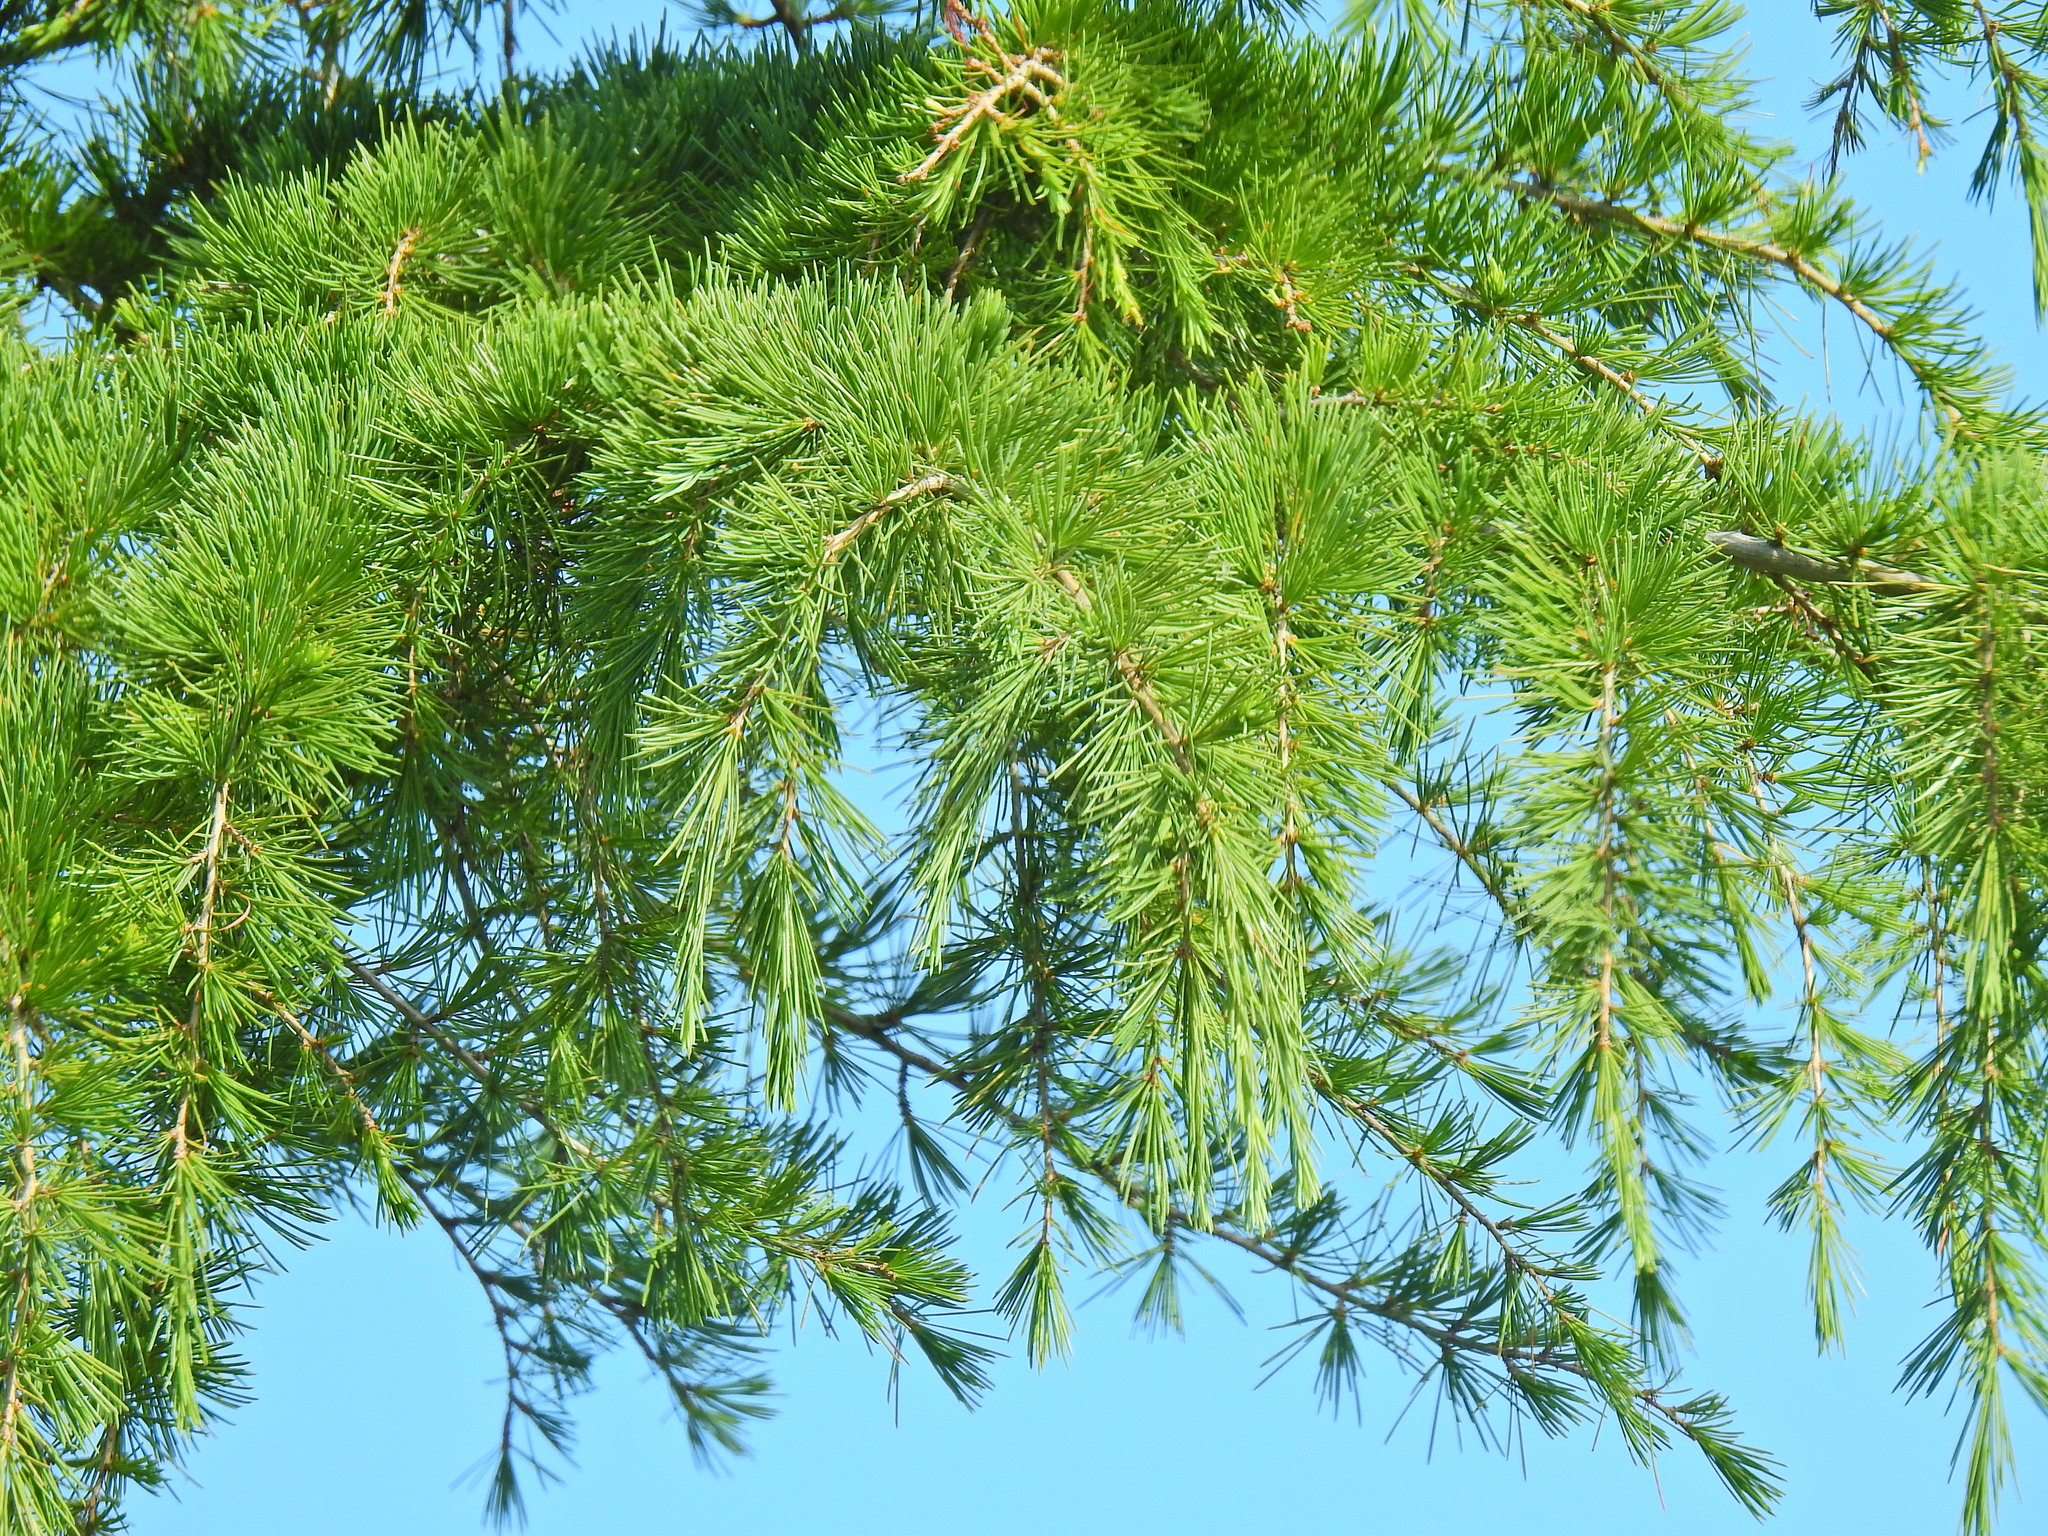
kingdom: Plantae
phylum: Tracheophyta
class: Pinopsida
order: Pinales
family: Pinaceae
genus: Cedrus
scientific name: Cedrus deodara
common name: Deodar
